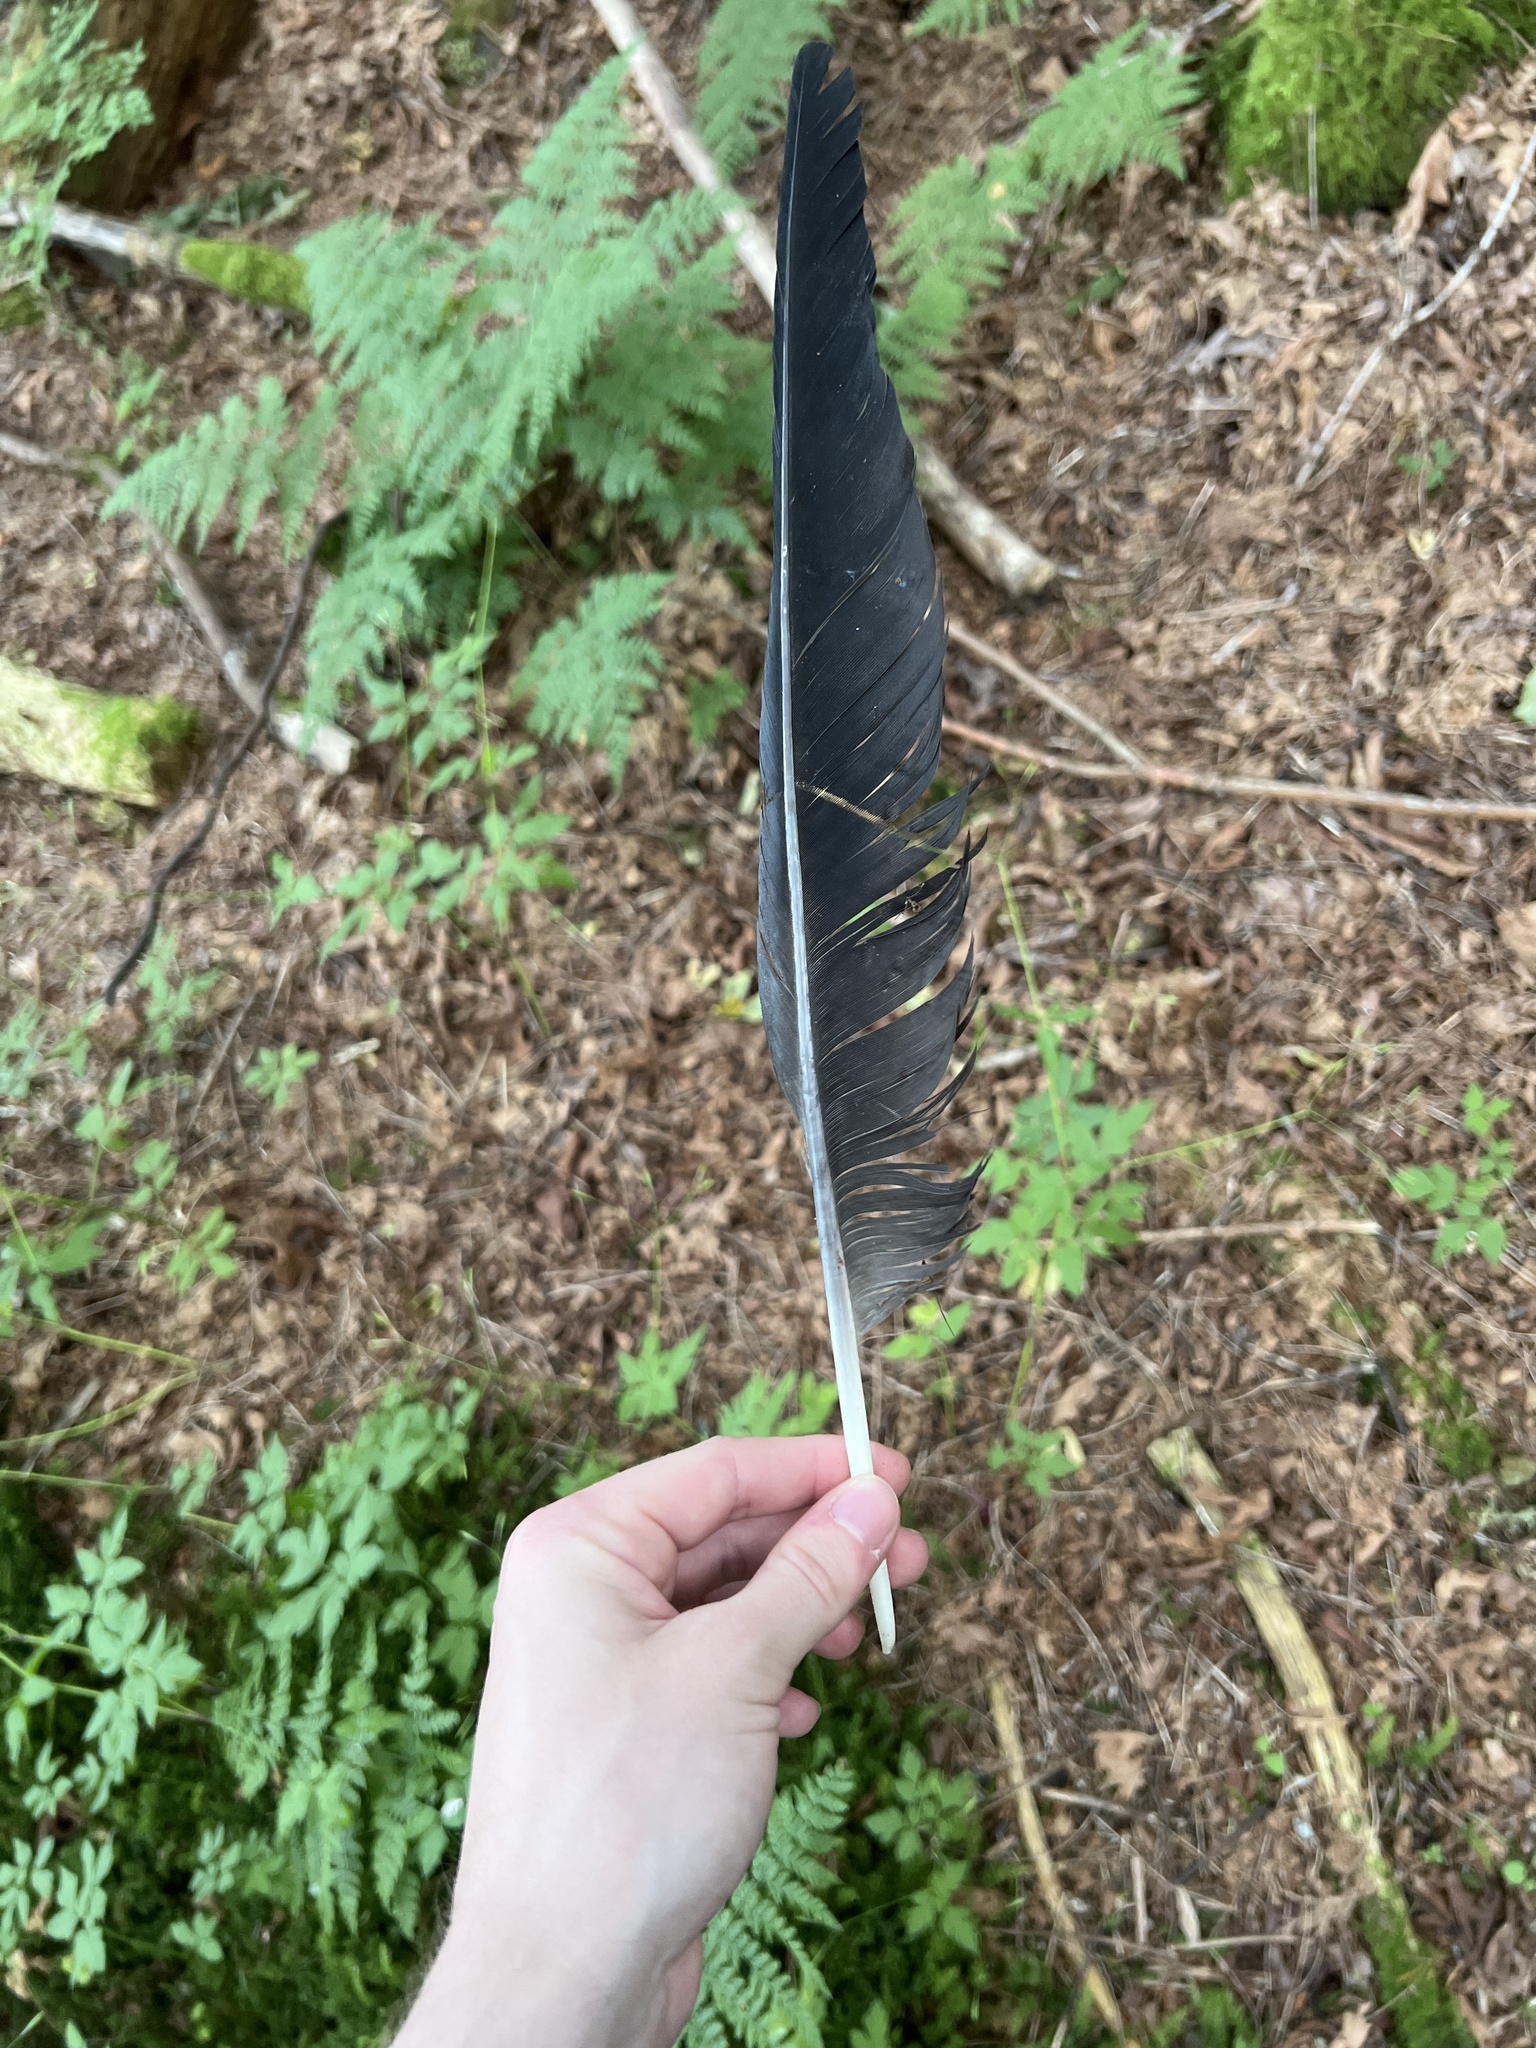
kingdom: Animalia
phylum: Chordata
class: Aves
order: Passeriformes
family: Corvidae
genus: Corvus
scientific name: Corvus corax
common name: Common raven
